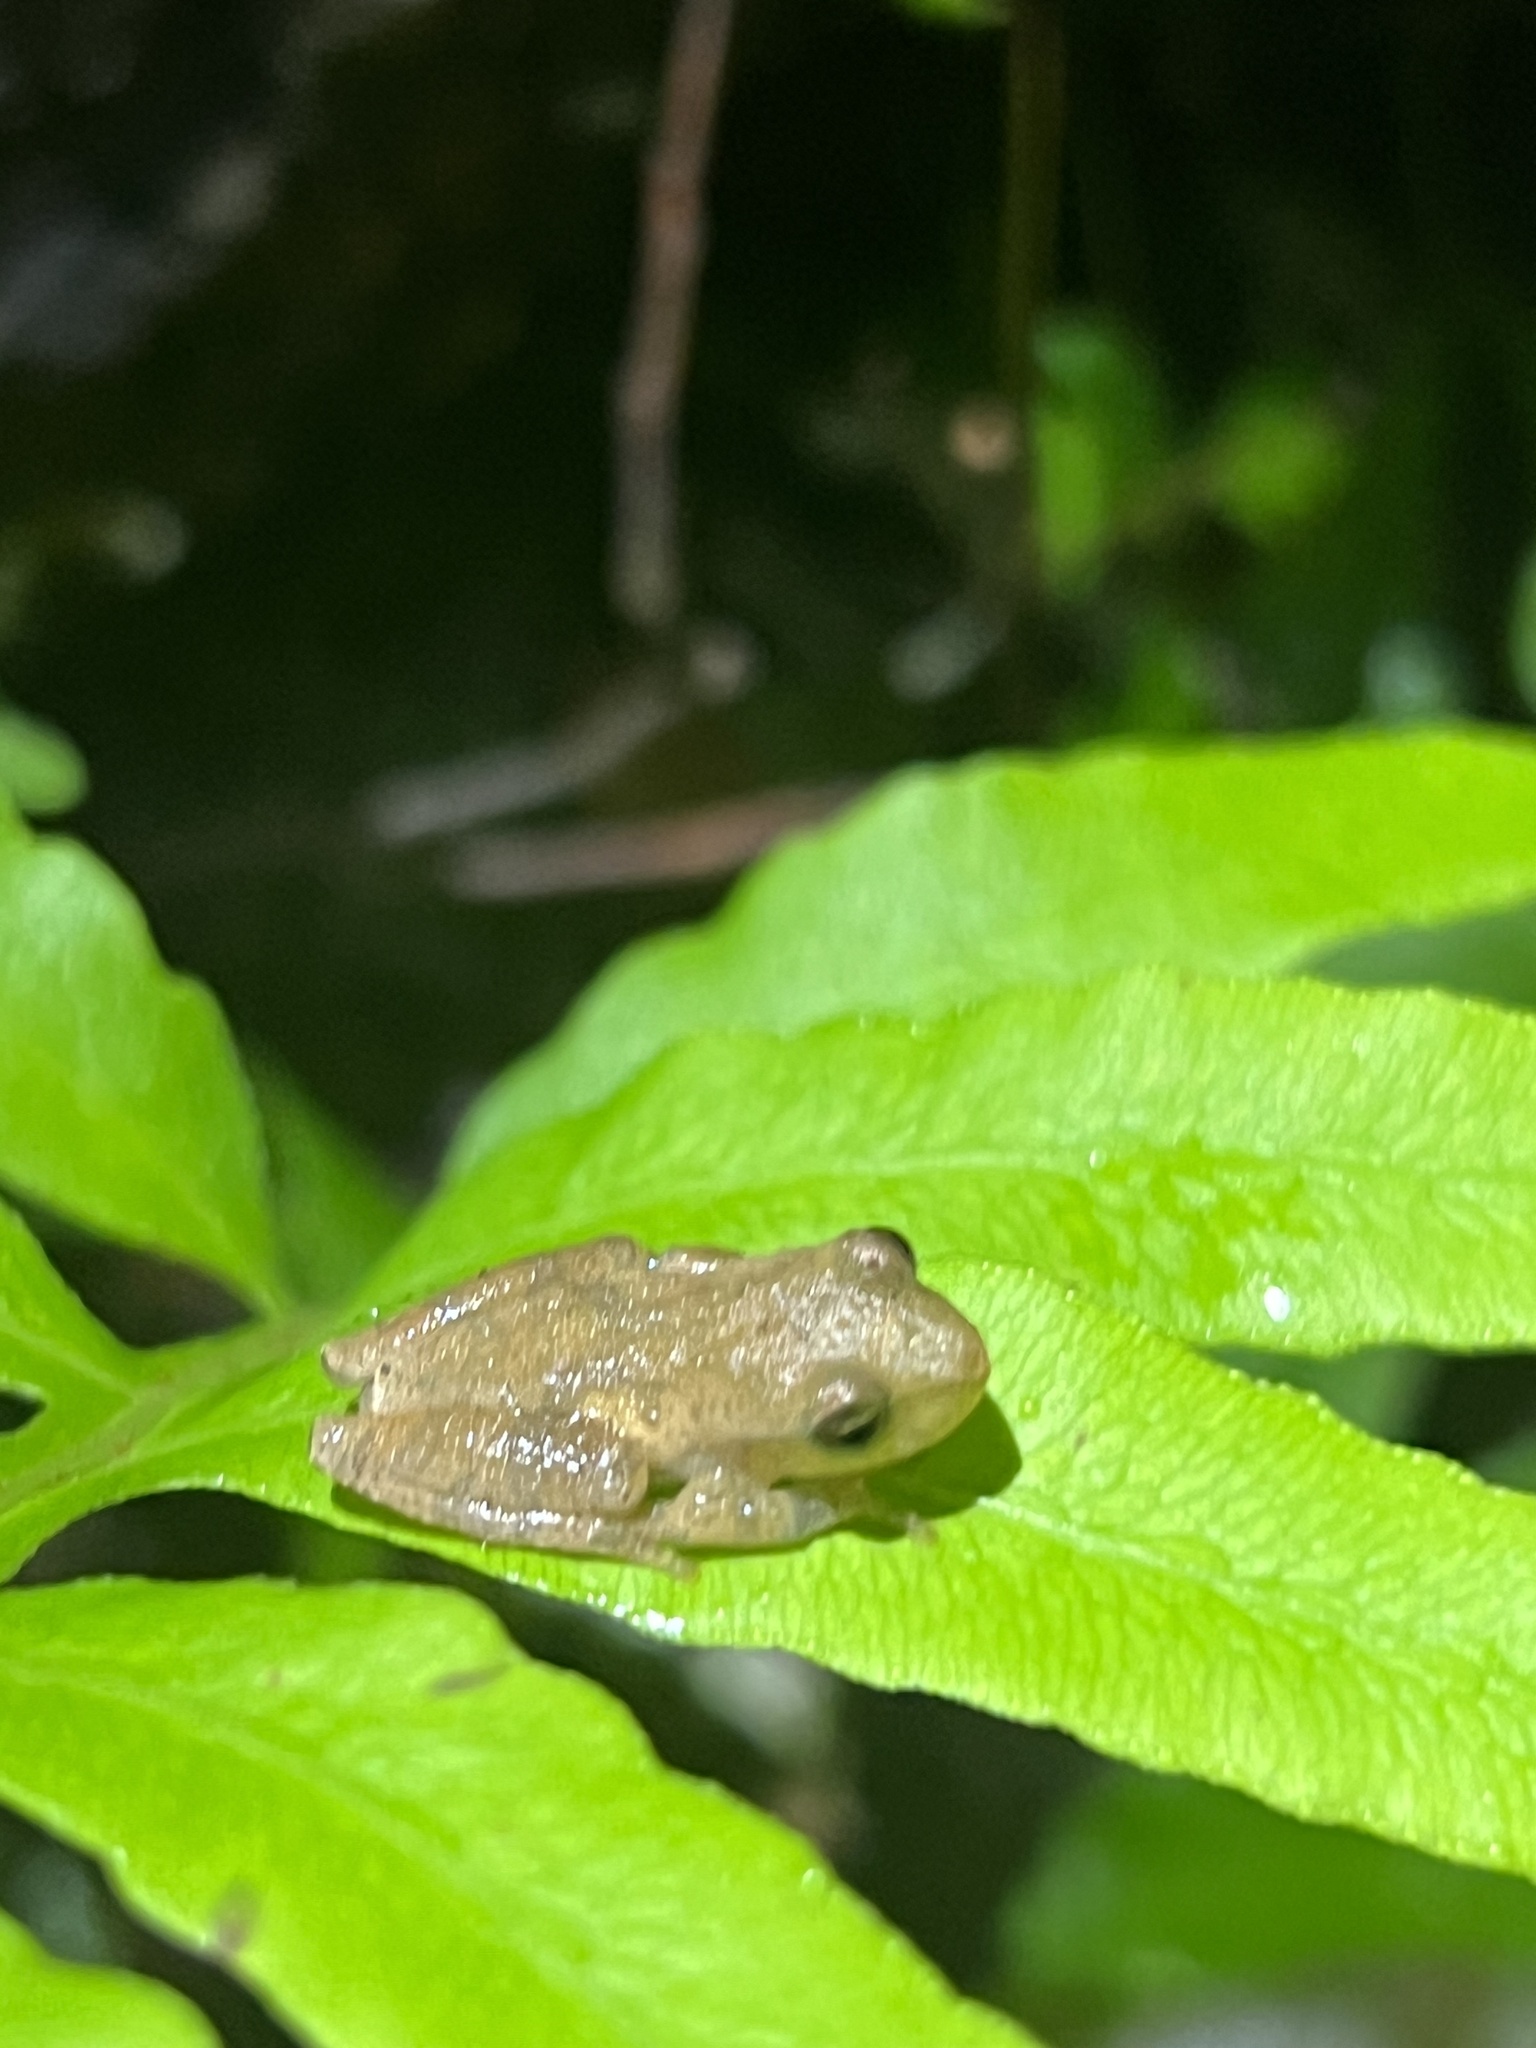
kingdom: Animalia
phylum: Chordata
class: Amphibia
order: Anura
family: Hylidae
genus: Pseudacris
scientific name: Pseudacris crucifer
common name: Spring peeper
